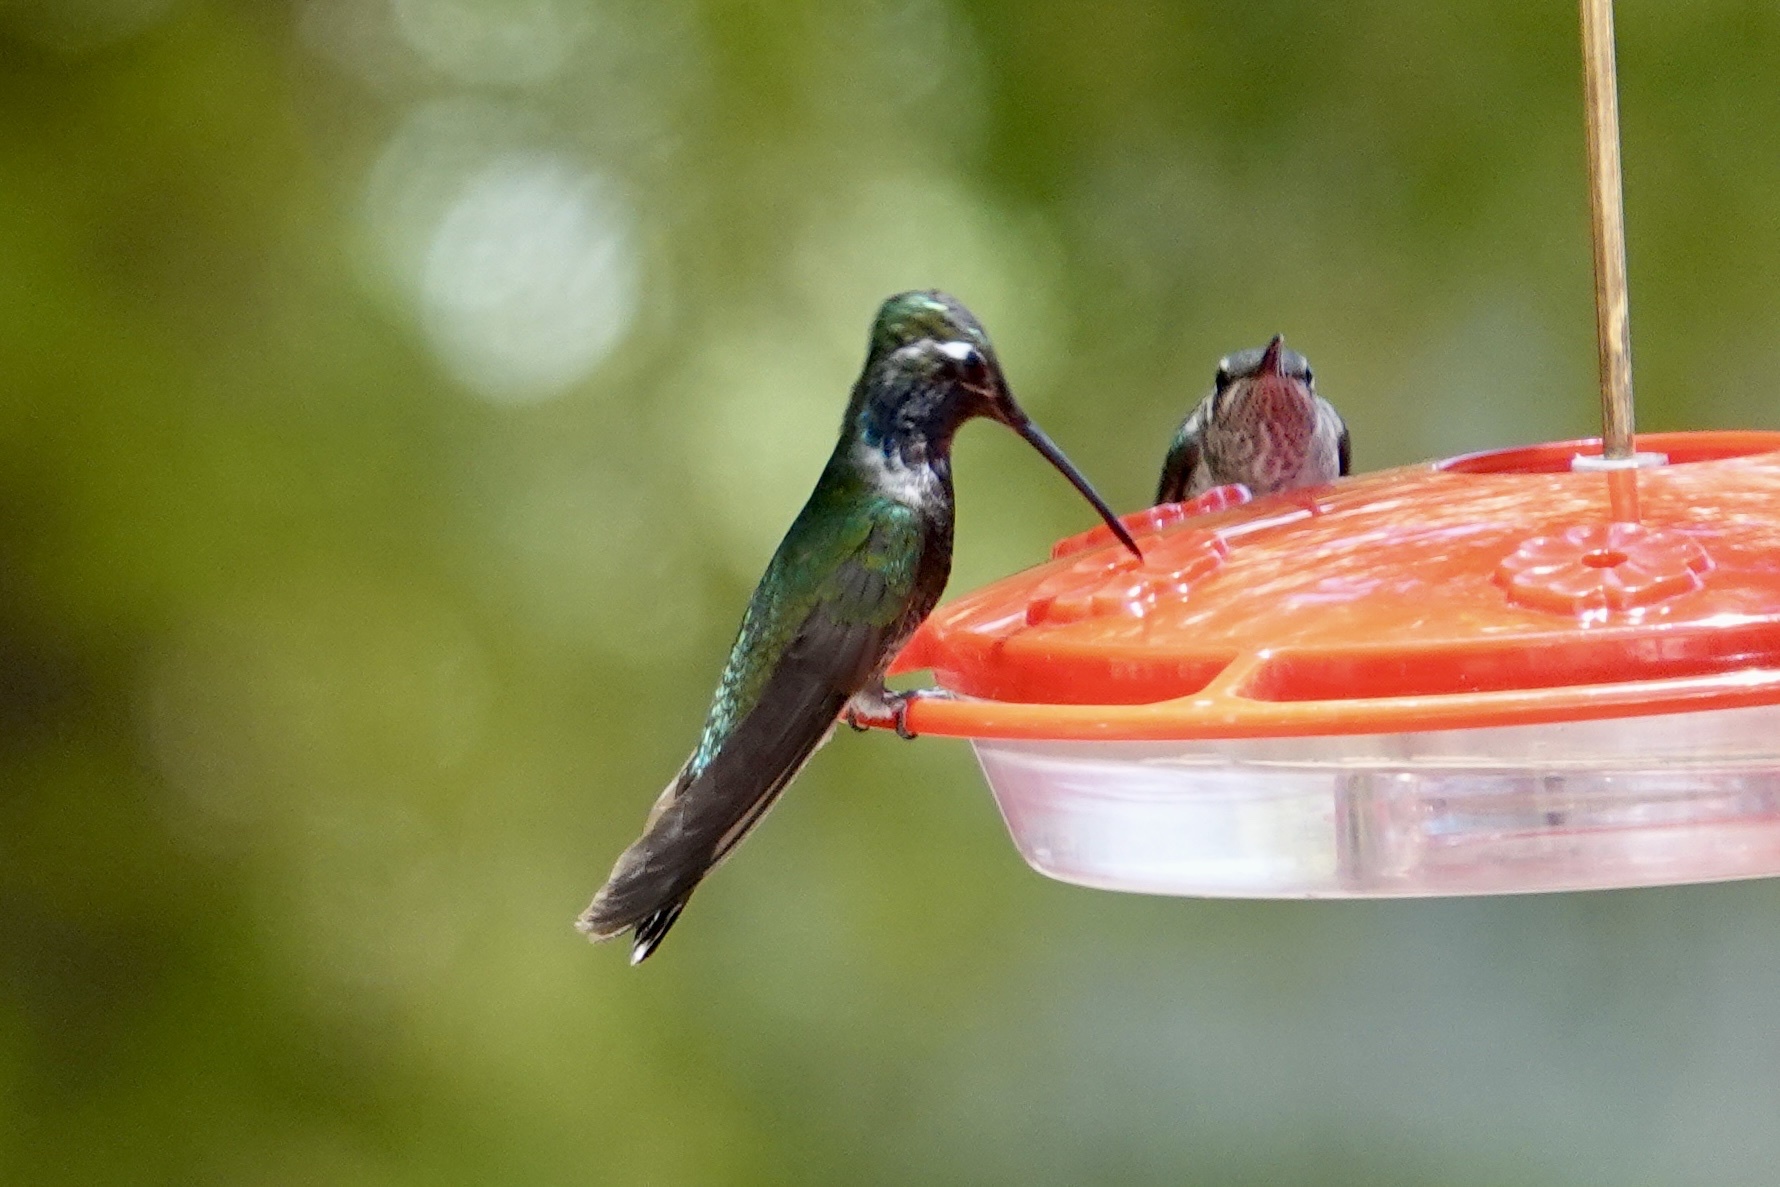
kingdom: Animalia
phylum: Chordata
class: Aves
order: Apodiformes
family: Trochilidae
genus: Eugenes
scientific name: Eugenes fulgens
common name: Magnificent hummingbird
